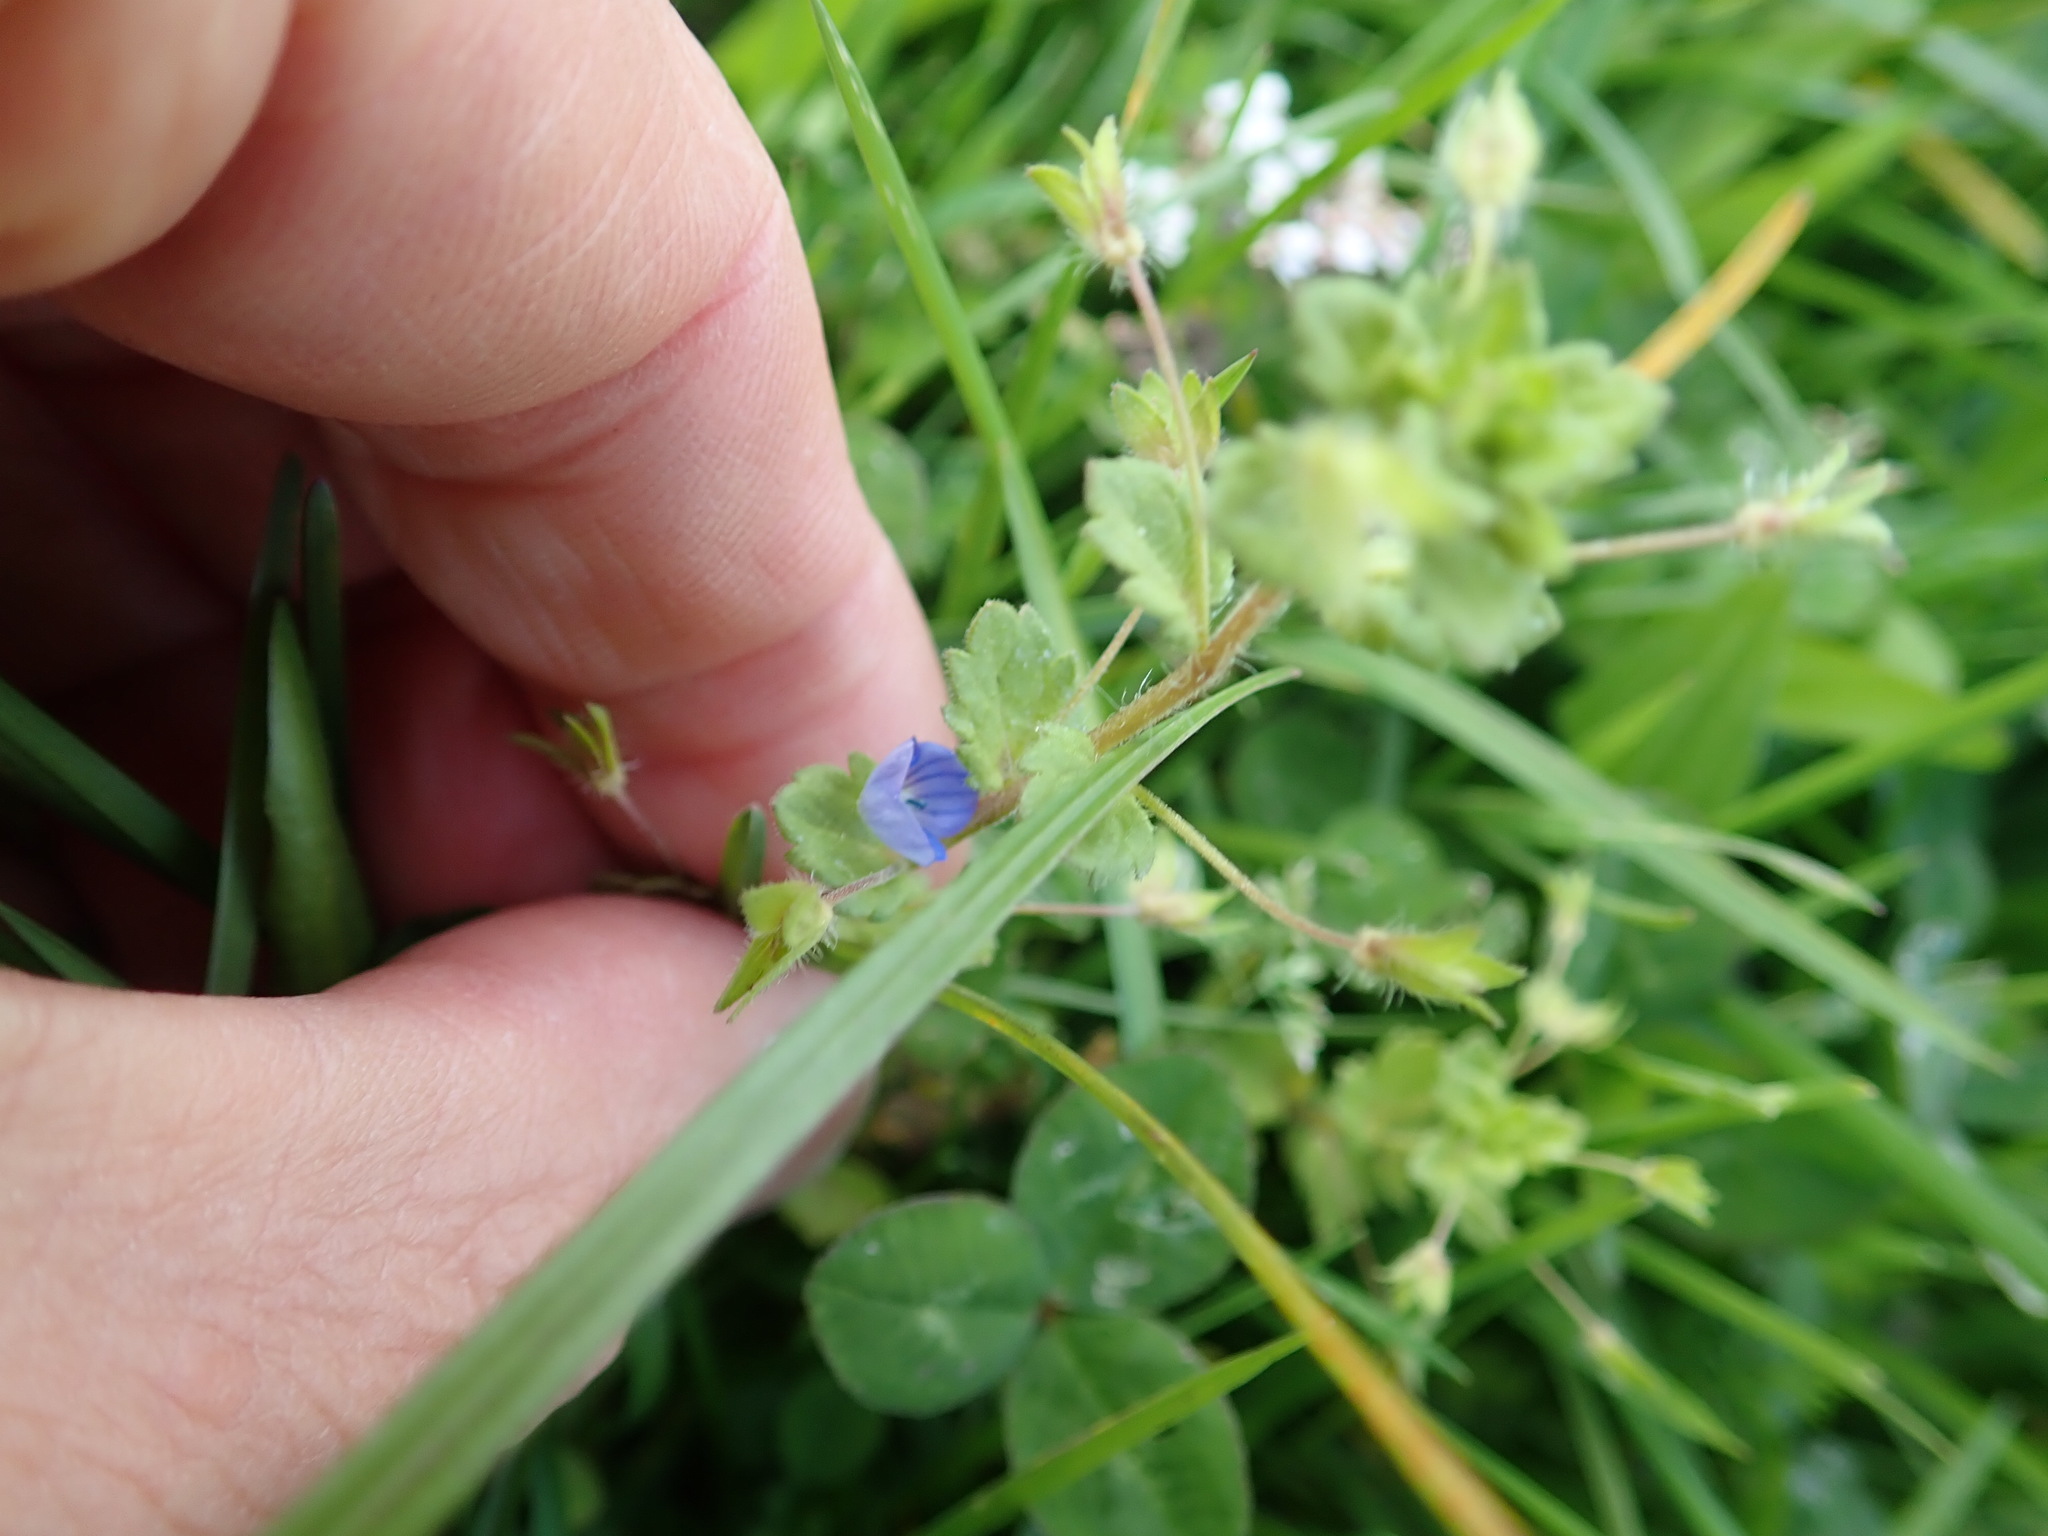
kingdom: Plantae
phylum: Tracheophyta
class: Magnoliopsida
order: Lamiales
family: Plantaginaceae
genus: Veronica
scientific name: Veronica persica
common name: Common field-speedwell
